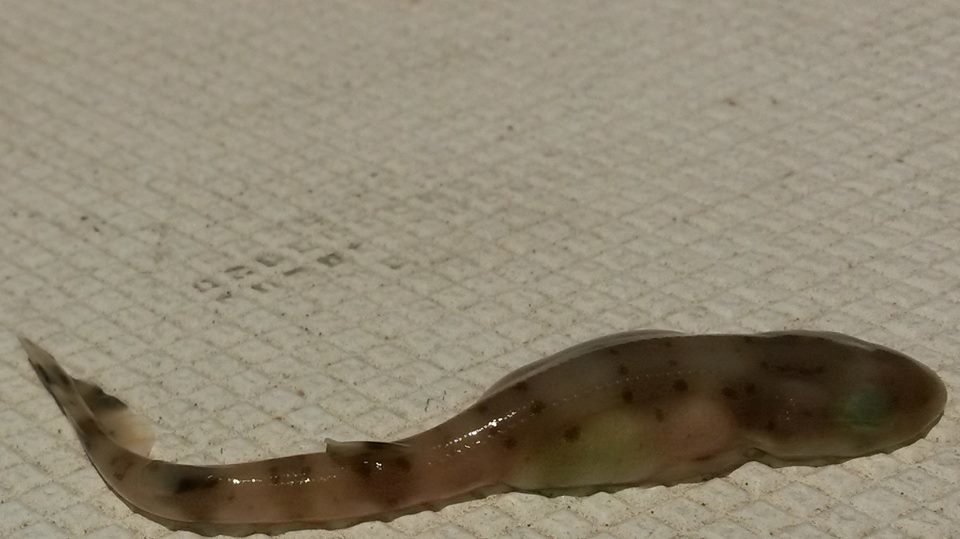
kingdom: Animalia
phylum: Chordata
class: Elasmobranchii
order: Carcharhiniformes
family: Scyliorhinidae
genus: Scyliorhinus
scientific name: Scyliorhinus canicula
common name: Lesser spotted dogfish
